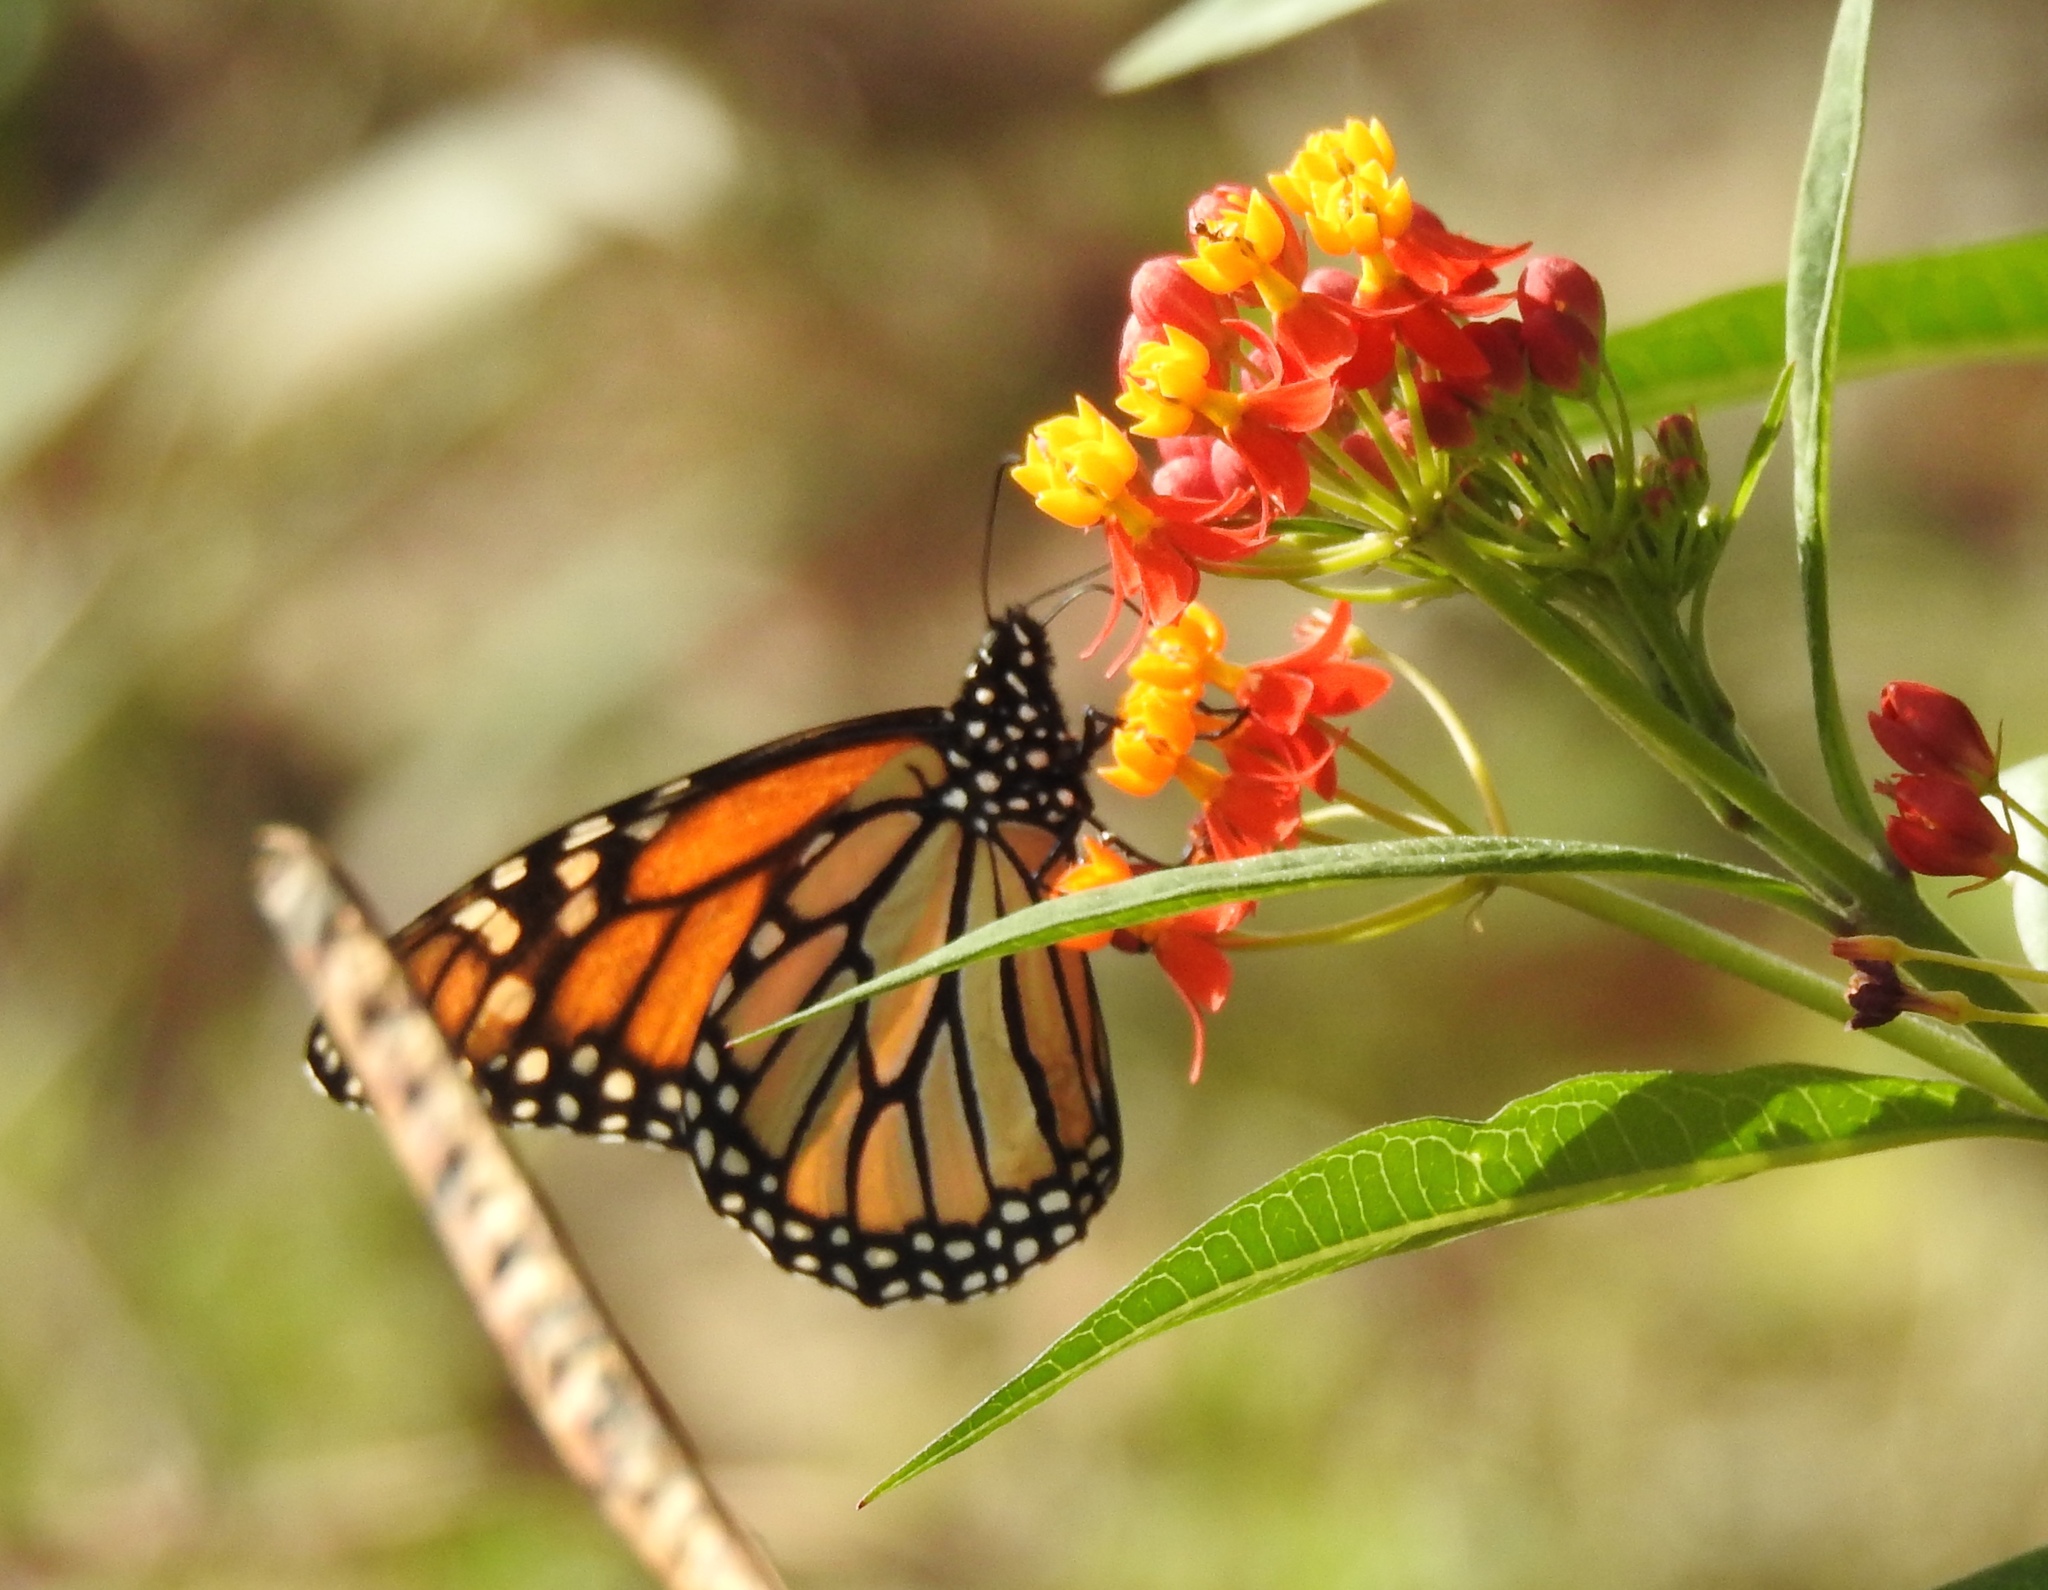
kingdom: Animalia
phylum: Arthropoda
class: Insecta
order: Lepidoptera
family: Nymphalidae
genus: Danaus
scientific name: Danaus plexippus
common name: Monarch
